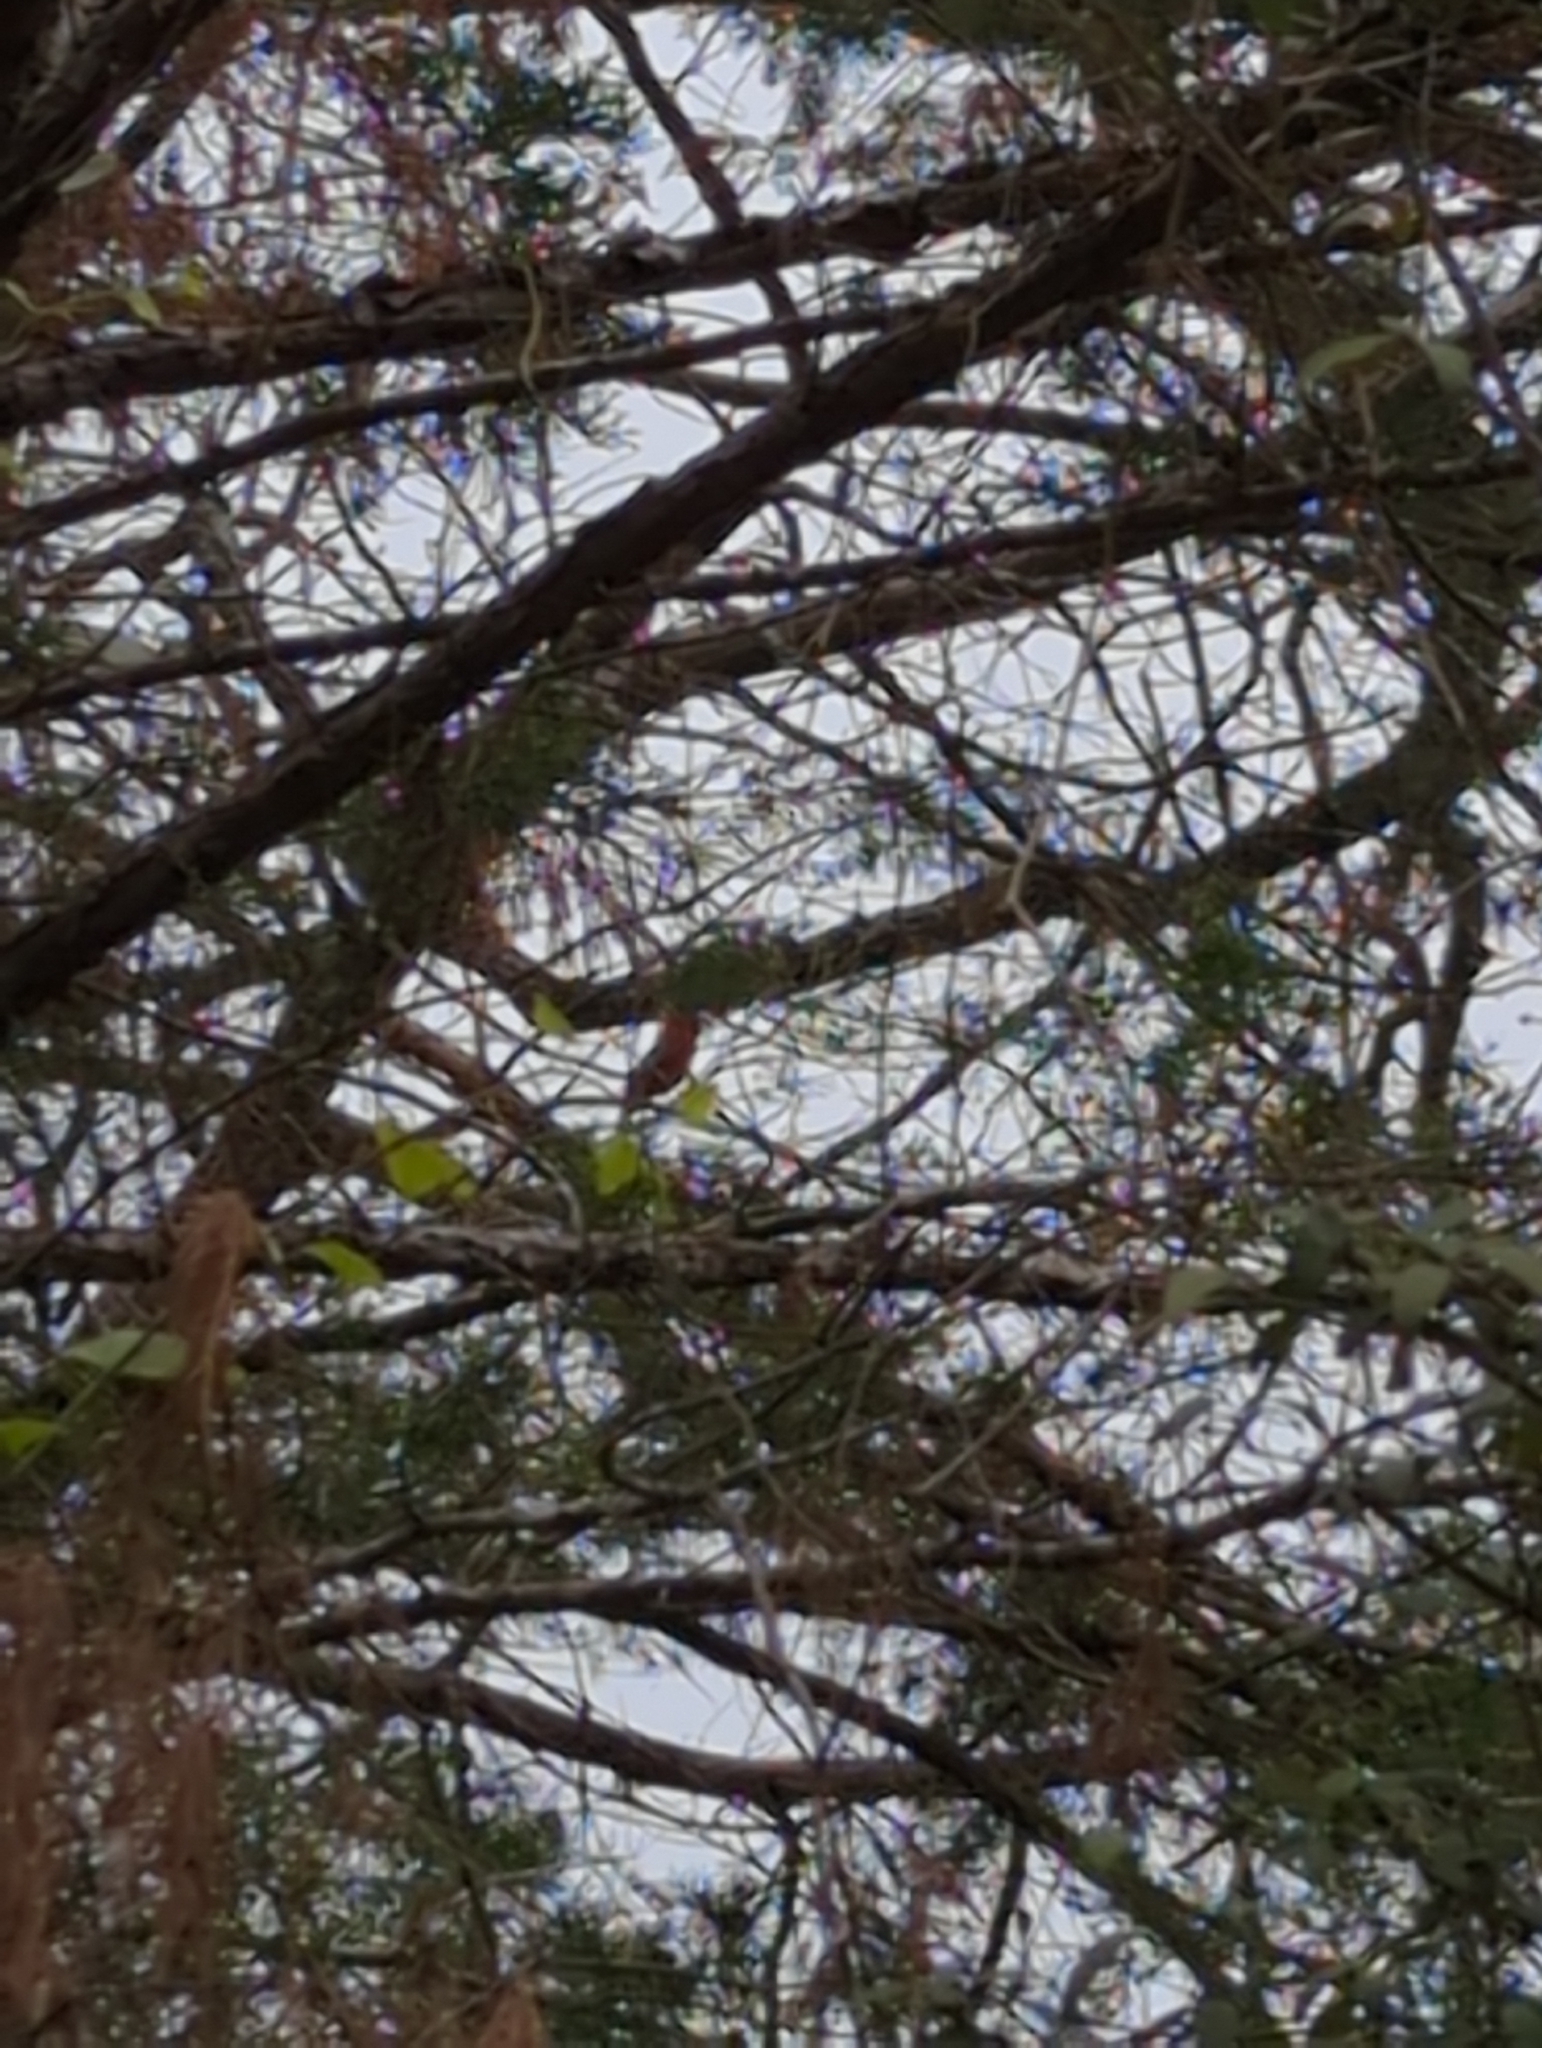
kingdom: Animalia
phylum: Chordata
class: Aves
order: Passeriformes
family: Cardinalidae
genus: Cardinalis
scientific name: Cardinalis cardinalis
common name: Northern cardinal
